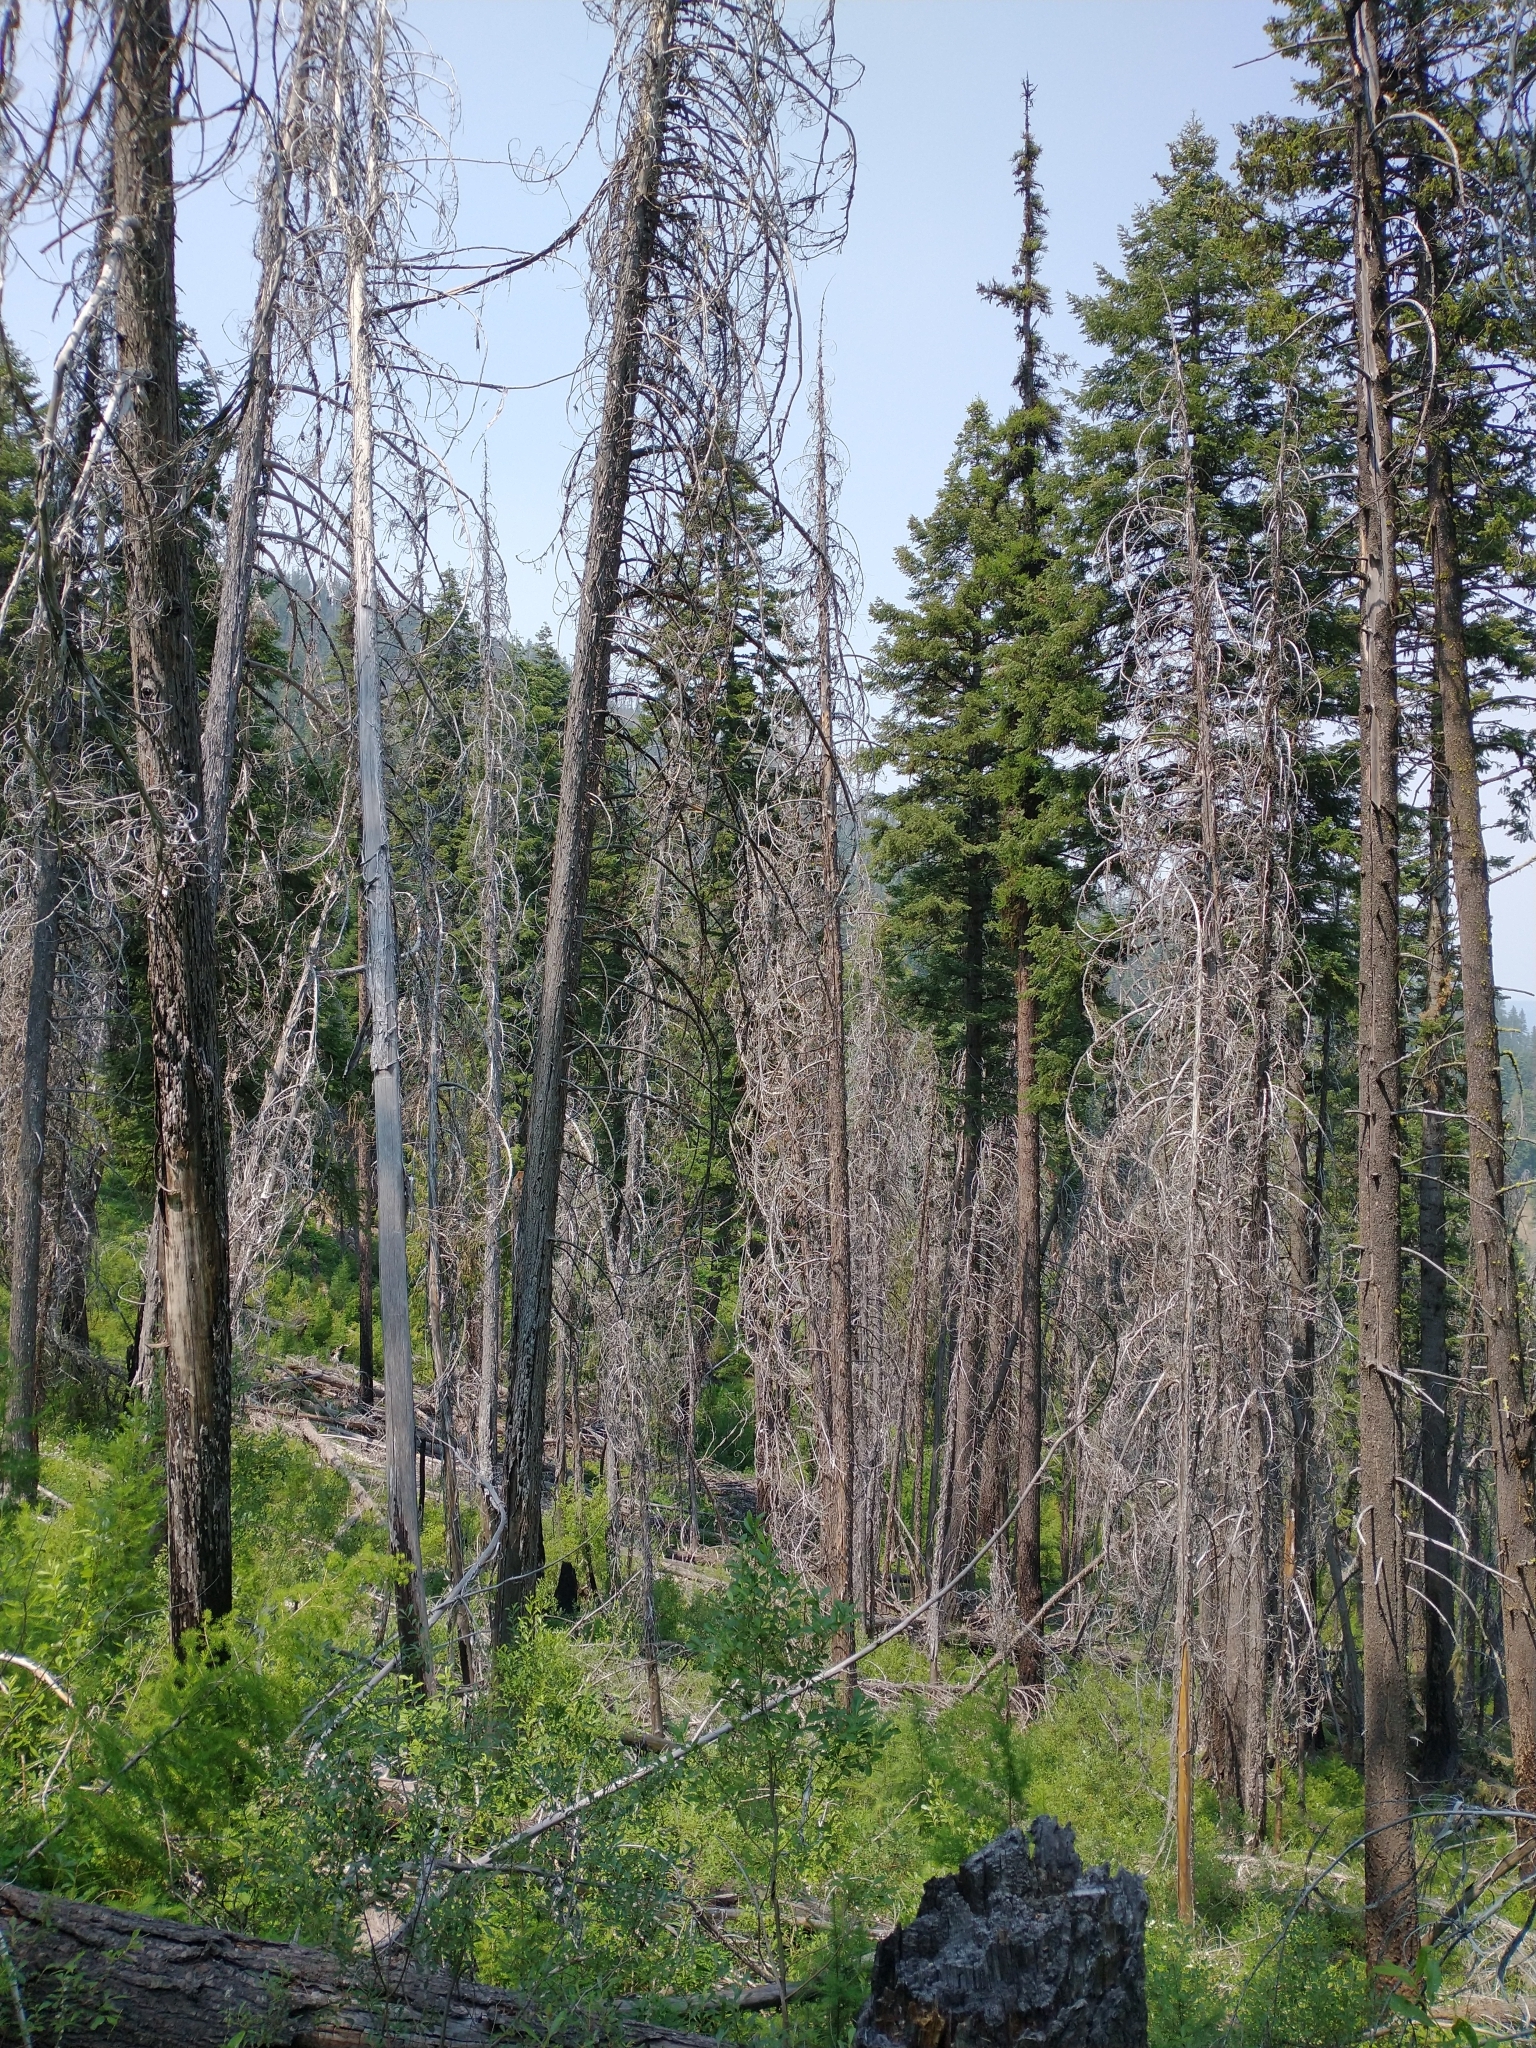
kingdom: Plantae
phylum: Tracheophyta
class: Pinopsida
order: Pinales
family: Cupressaceae
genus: Xanthocyparis
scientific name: Xanthocyparis nootkatensis
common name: Nootka cypress
